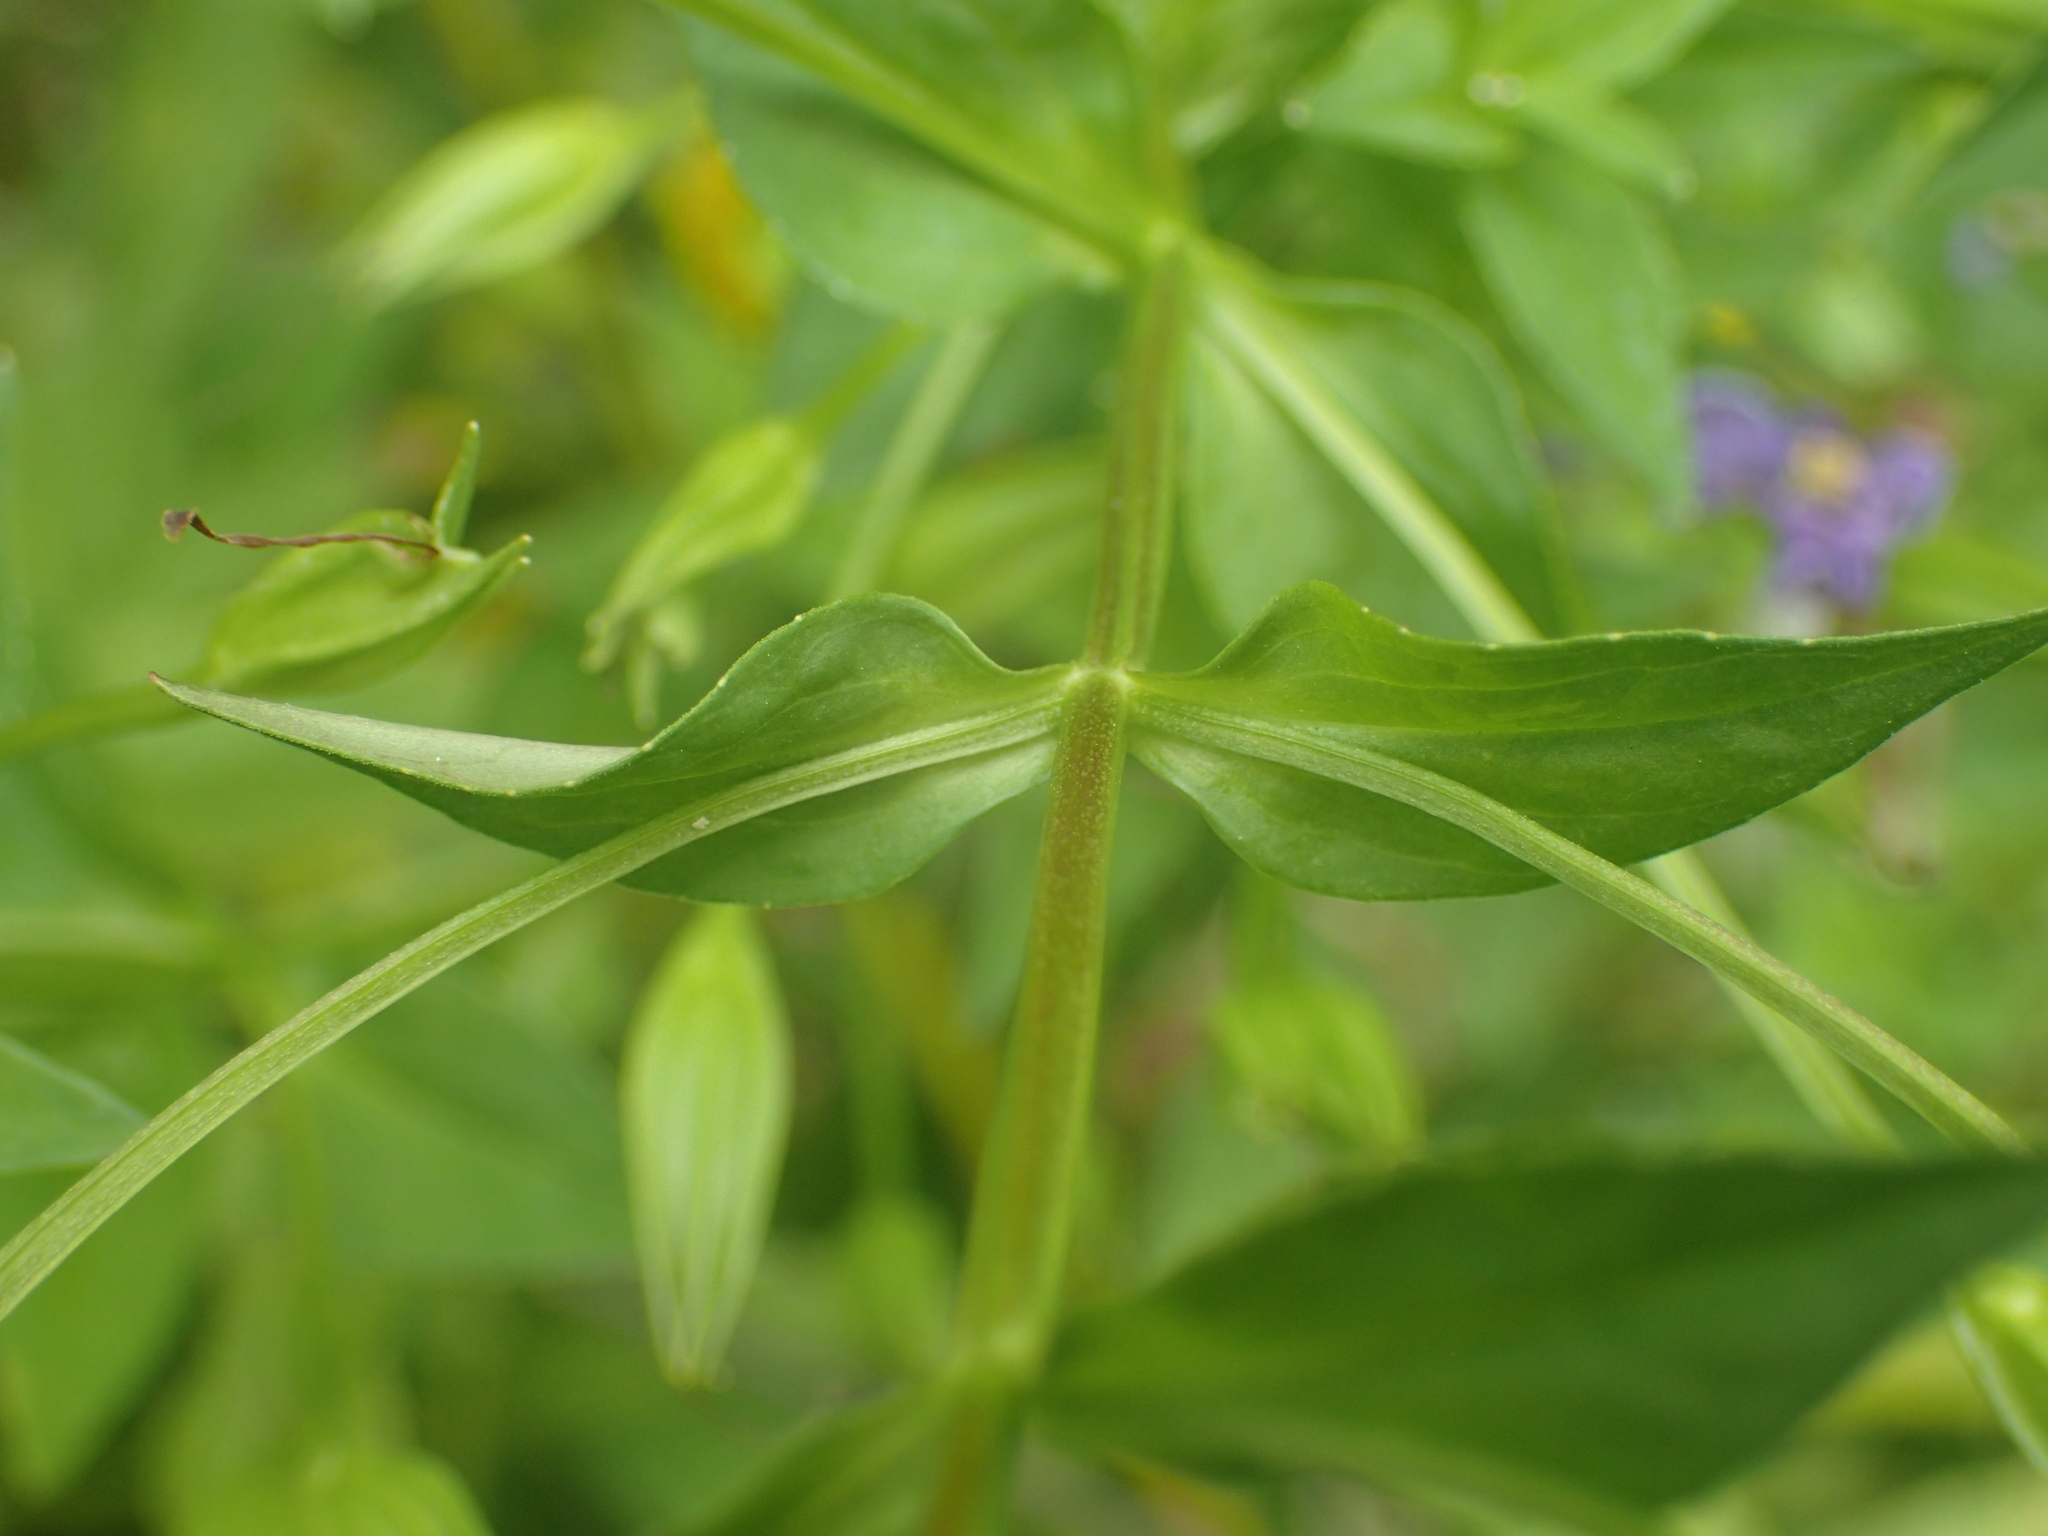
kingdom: Plantae
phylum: Tracheophyta
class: Magnoliopsida
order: Lamiales
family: Phrymaceae
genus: Mimulus
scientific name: Mimulus ringens
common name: Allegheny monkeyflower
